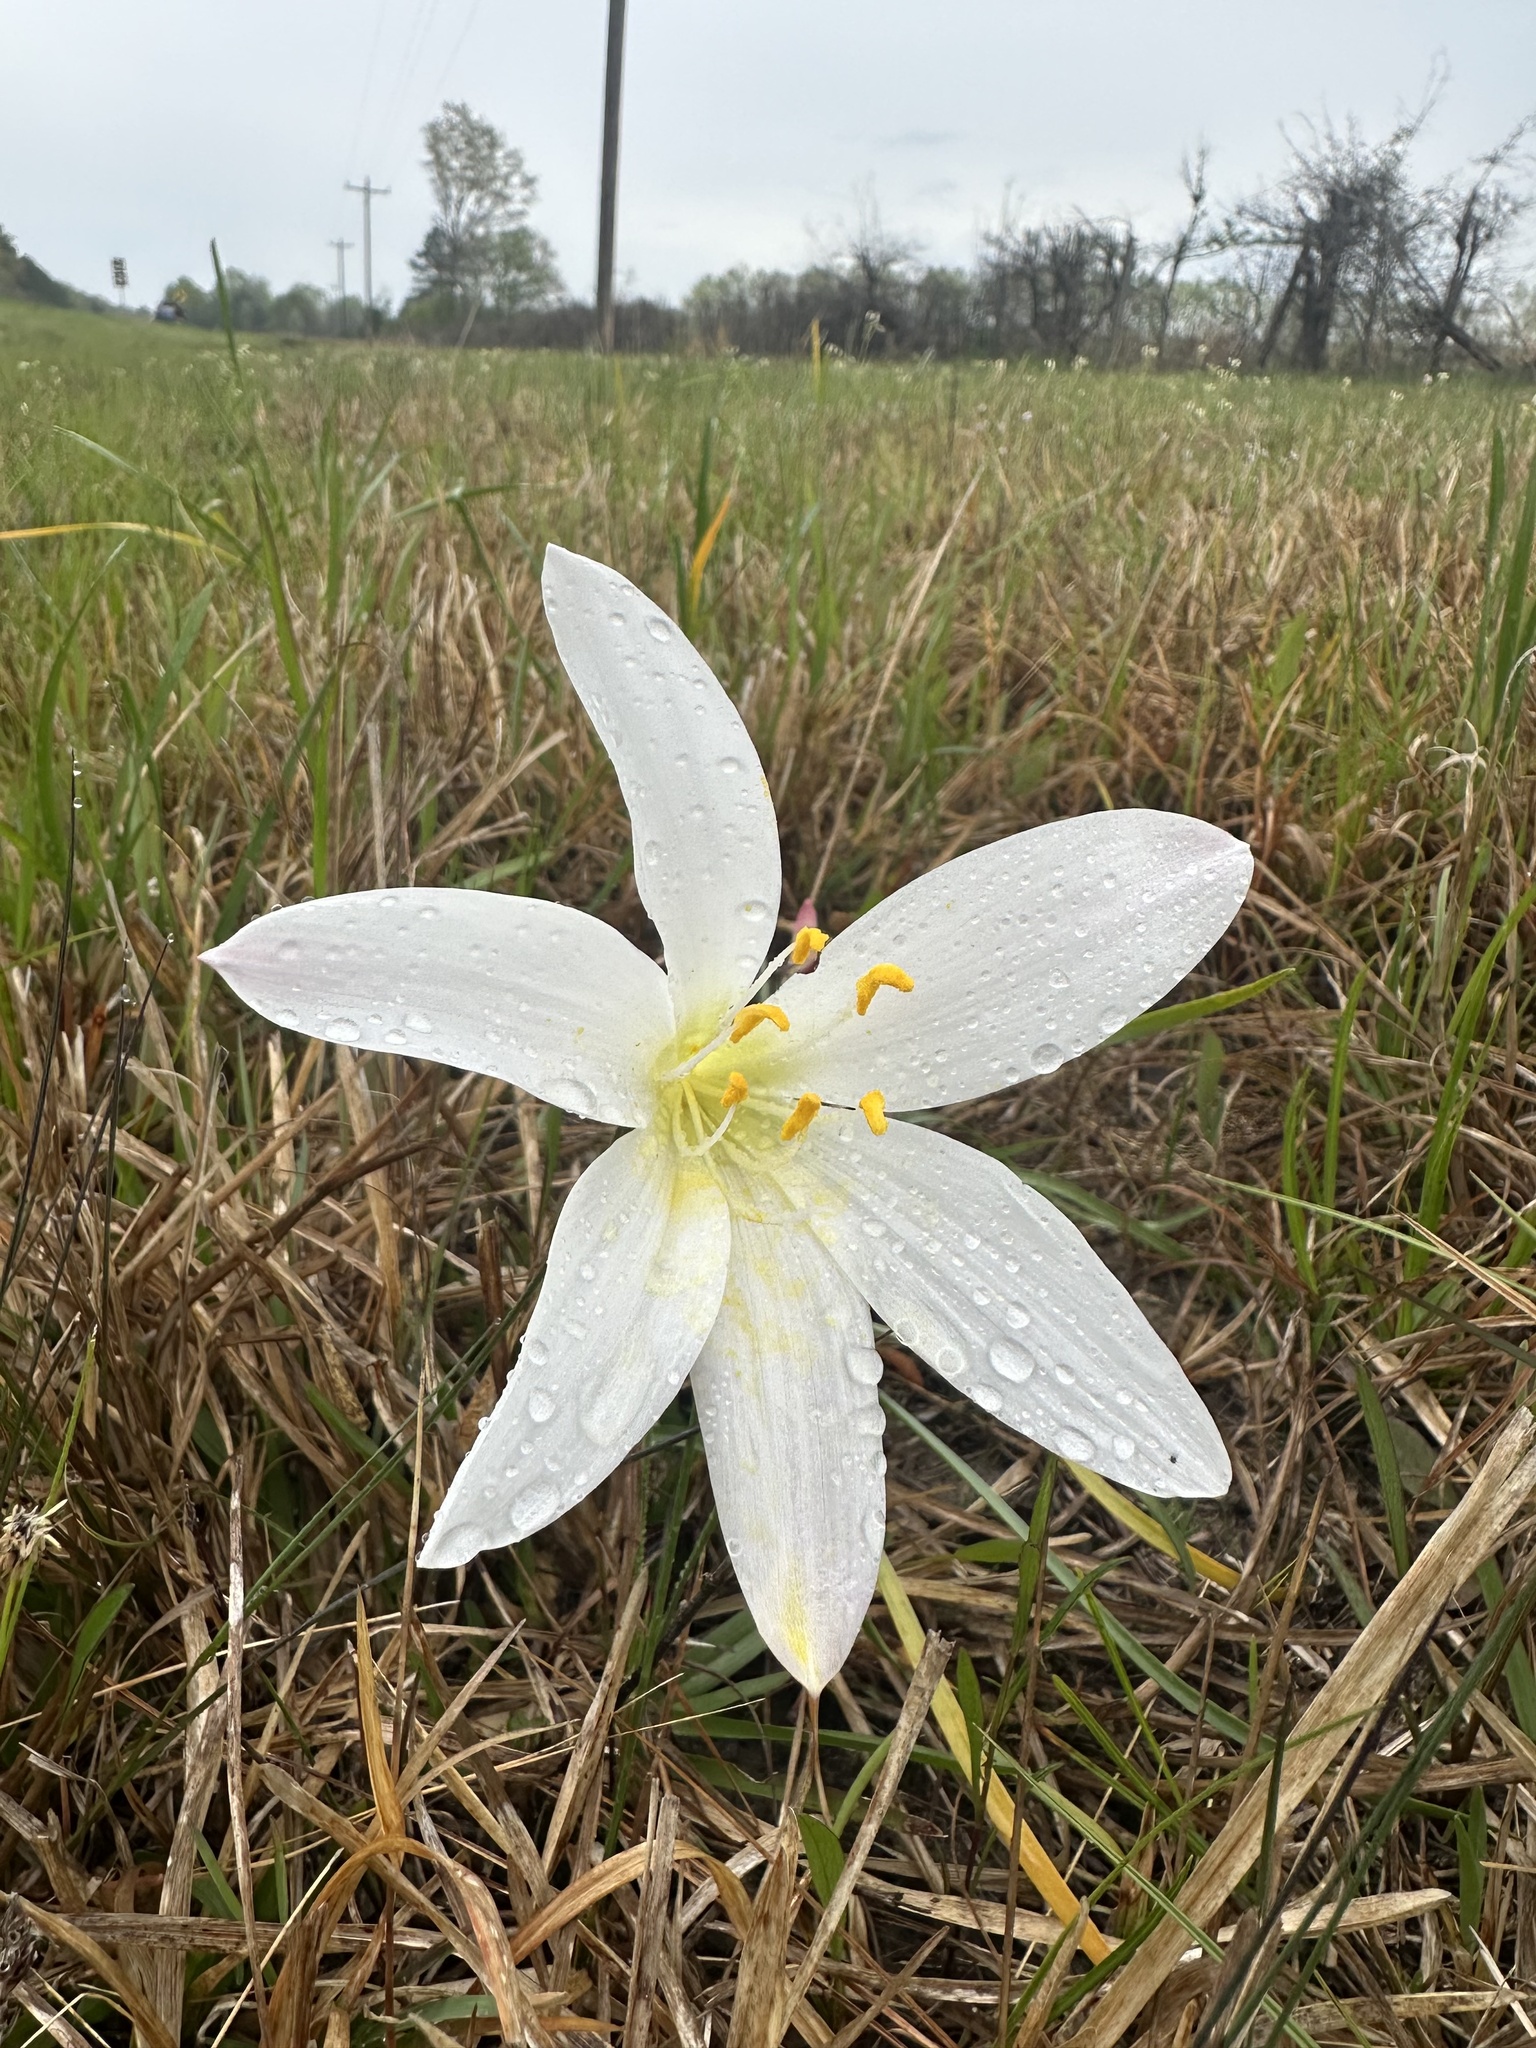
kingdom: Plantae
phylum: Tracheophyta
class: Liliopsida
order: Asparagales
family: Amaryllidaceae
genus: Zephyranthes
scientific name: Zephyranthes atamasco
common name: Atamasco lily
